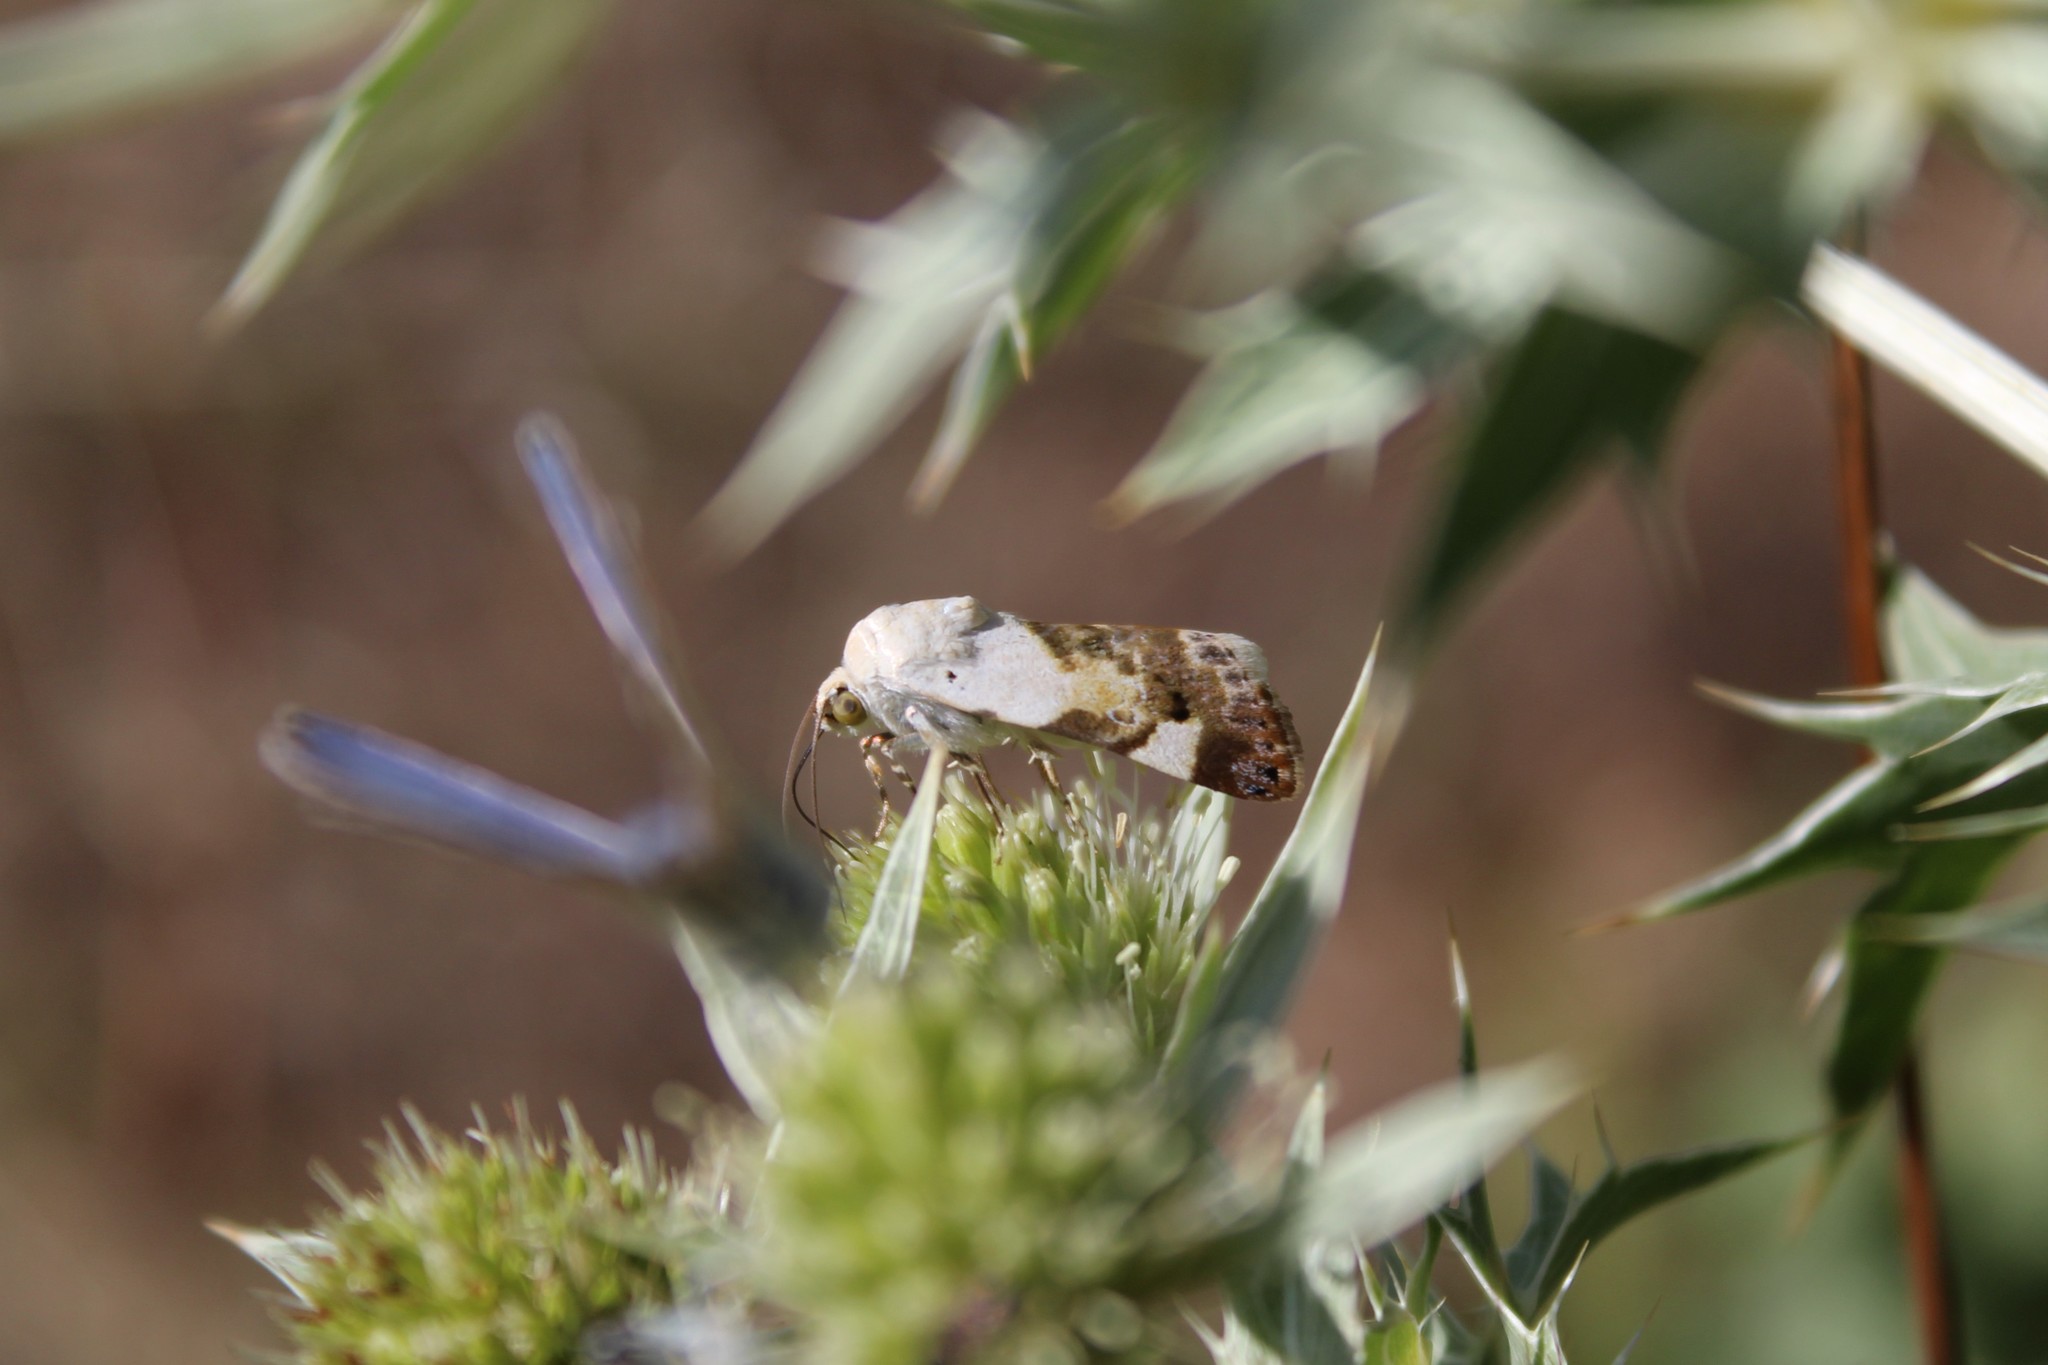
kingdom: Animalia
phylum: Arthropoda
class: Insecta
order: Lepidoptera
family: Noctuidae
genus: Acontia
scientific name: Acontia lucida
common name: Pale shoulder
